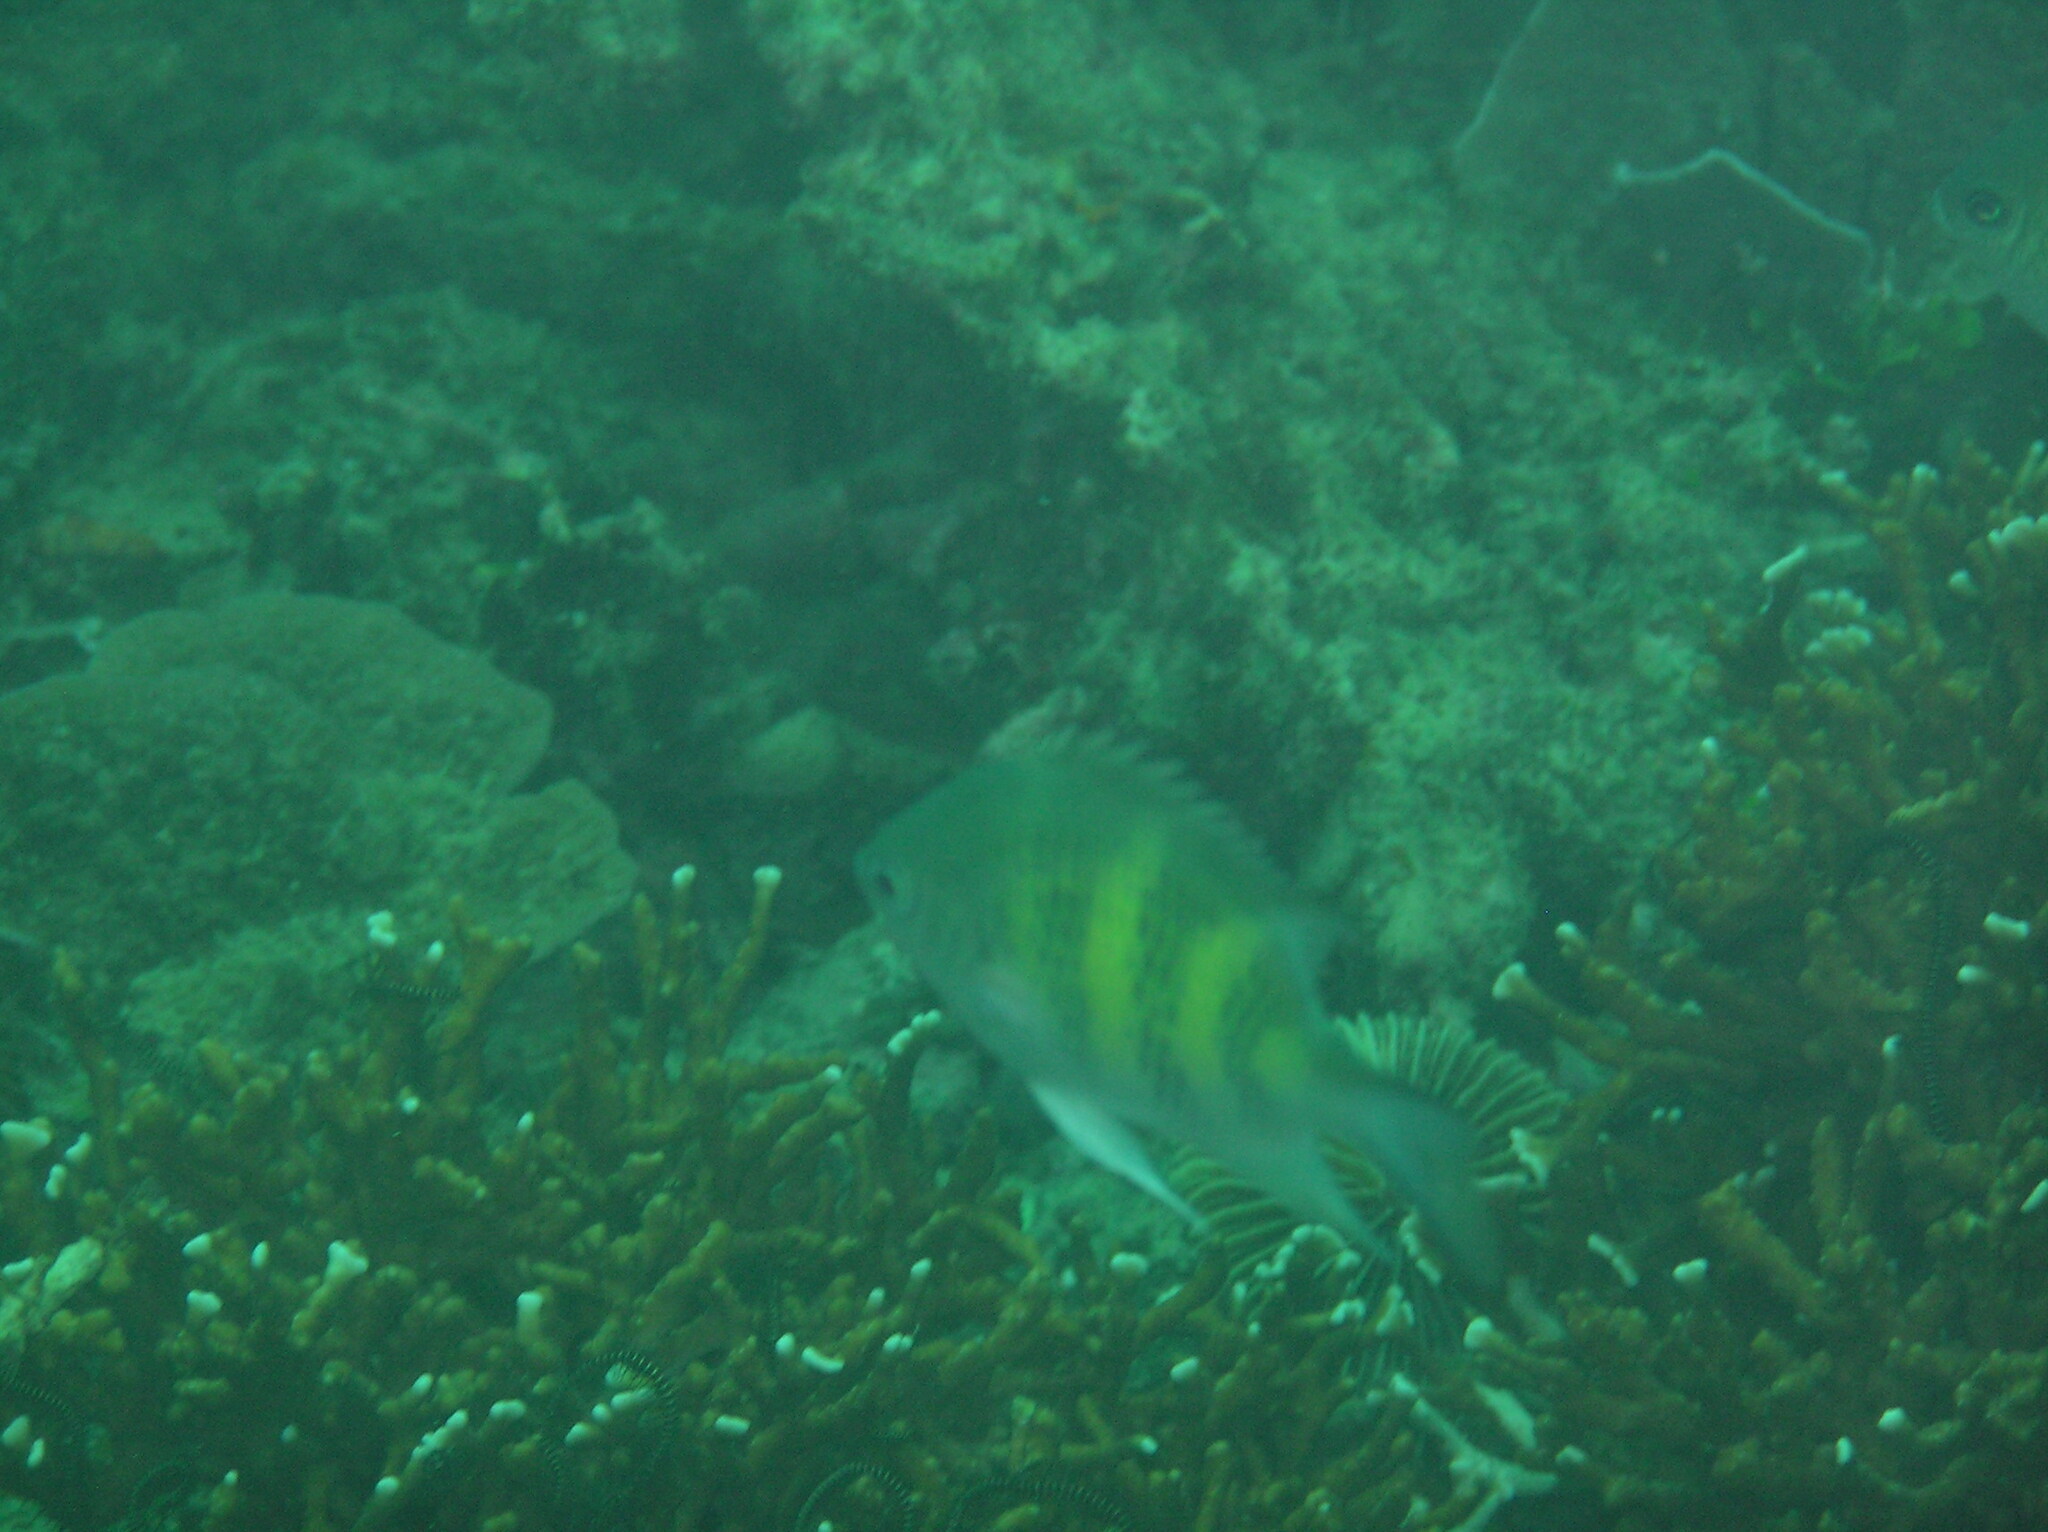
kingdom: Animalia
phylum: Chordata
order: Perciformes
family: Pomacentridae
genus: Amblyglyphidodon
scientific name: Amblyglyphidodon curacao
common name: Staghorn damsel
